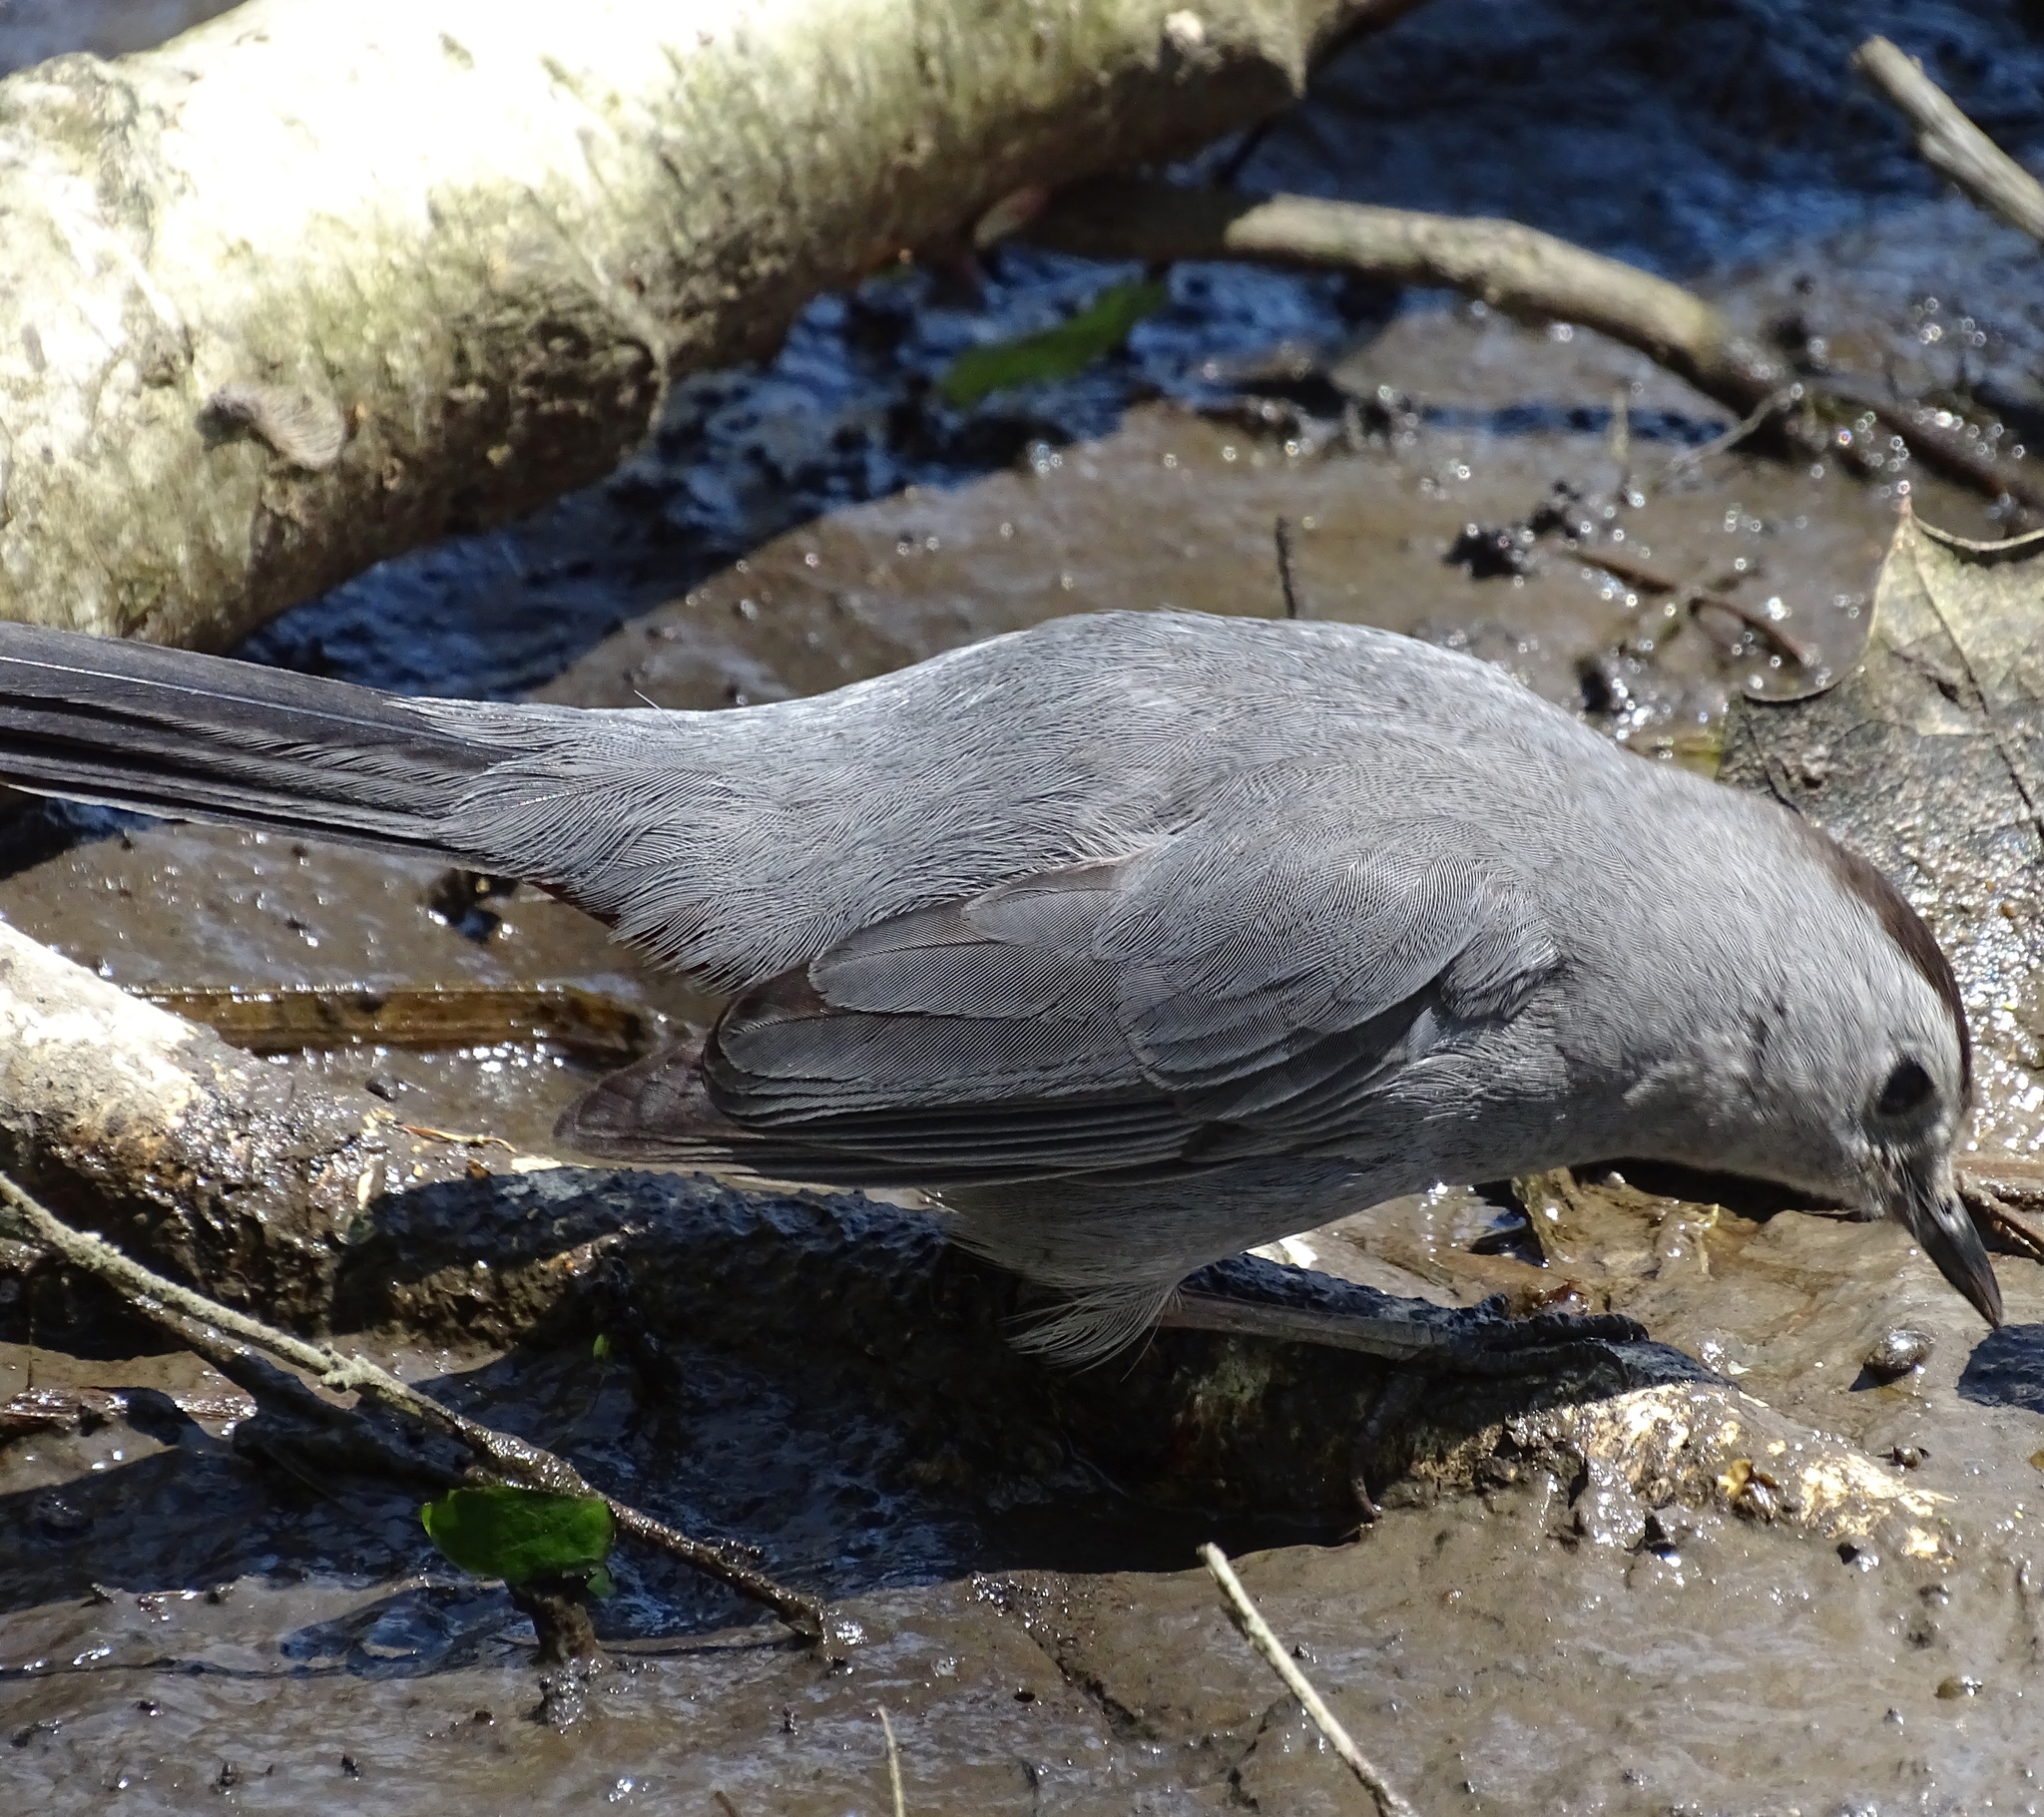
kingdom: Animalia
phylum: Chordata
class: Aves
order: Passeriformes
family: Mimidae
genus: Dumetella
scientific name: Dumetella carolinensis
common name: Gray catbird
